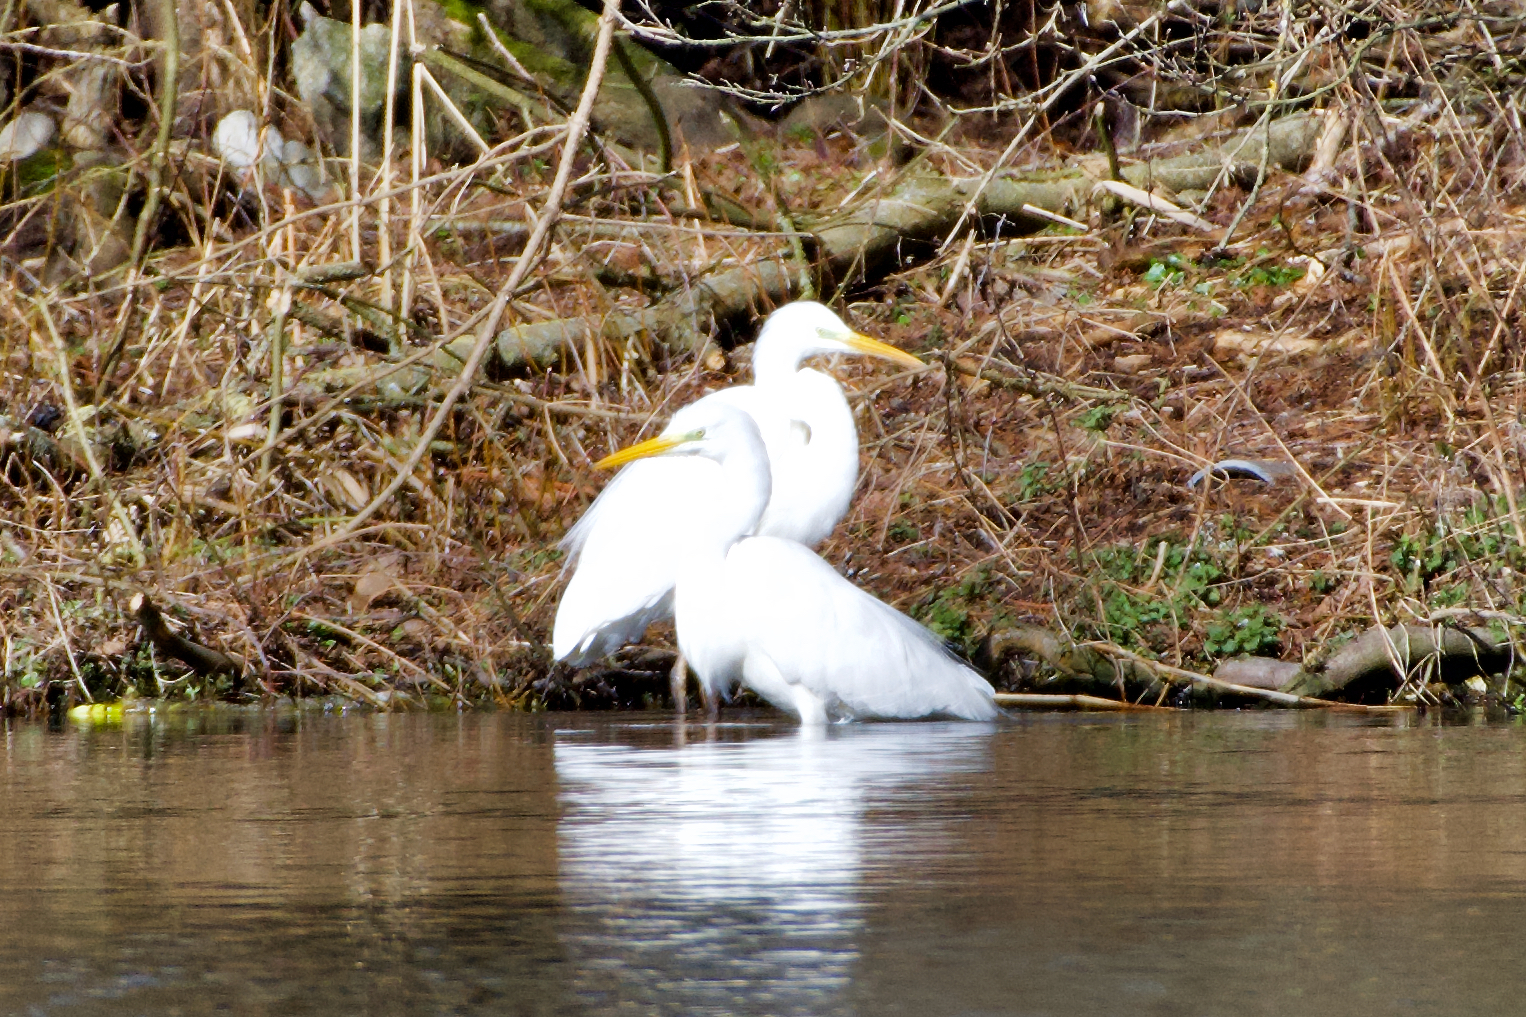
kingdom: Animalia
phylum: Chordata
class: Aves
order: Pelecaniformes
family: Ardeidae
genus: Ardea
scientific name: Ardea alba
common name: Great egret
